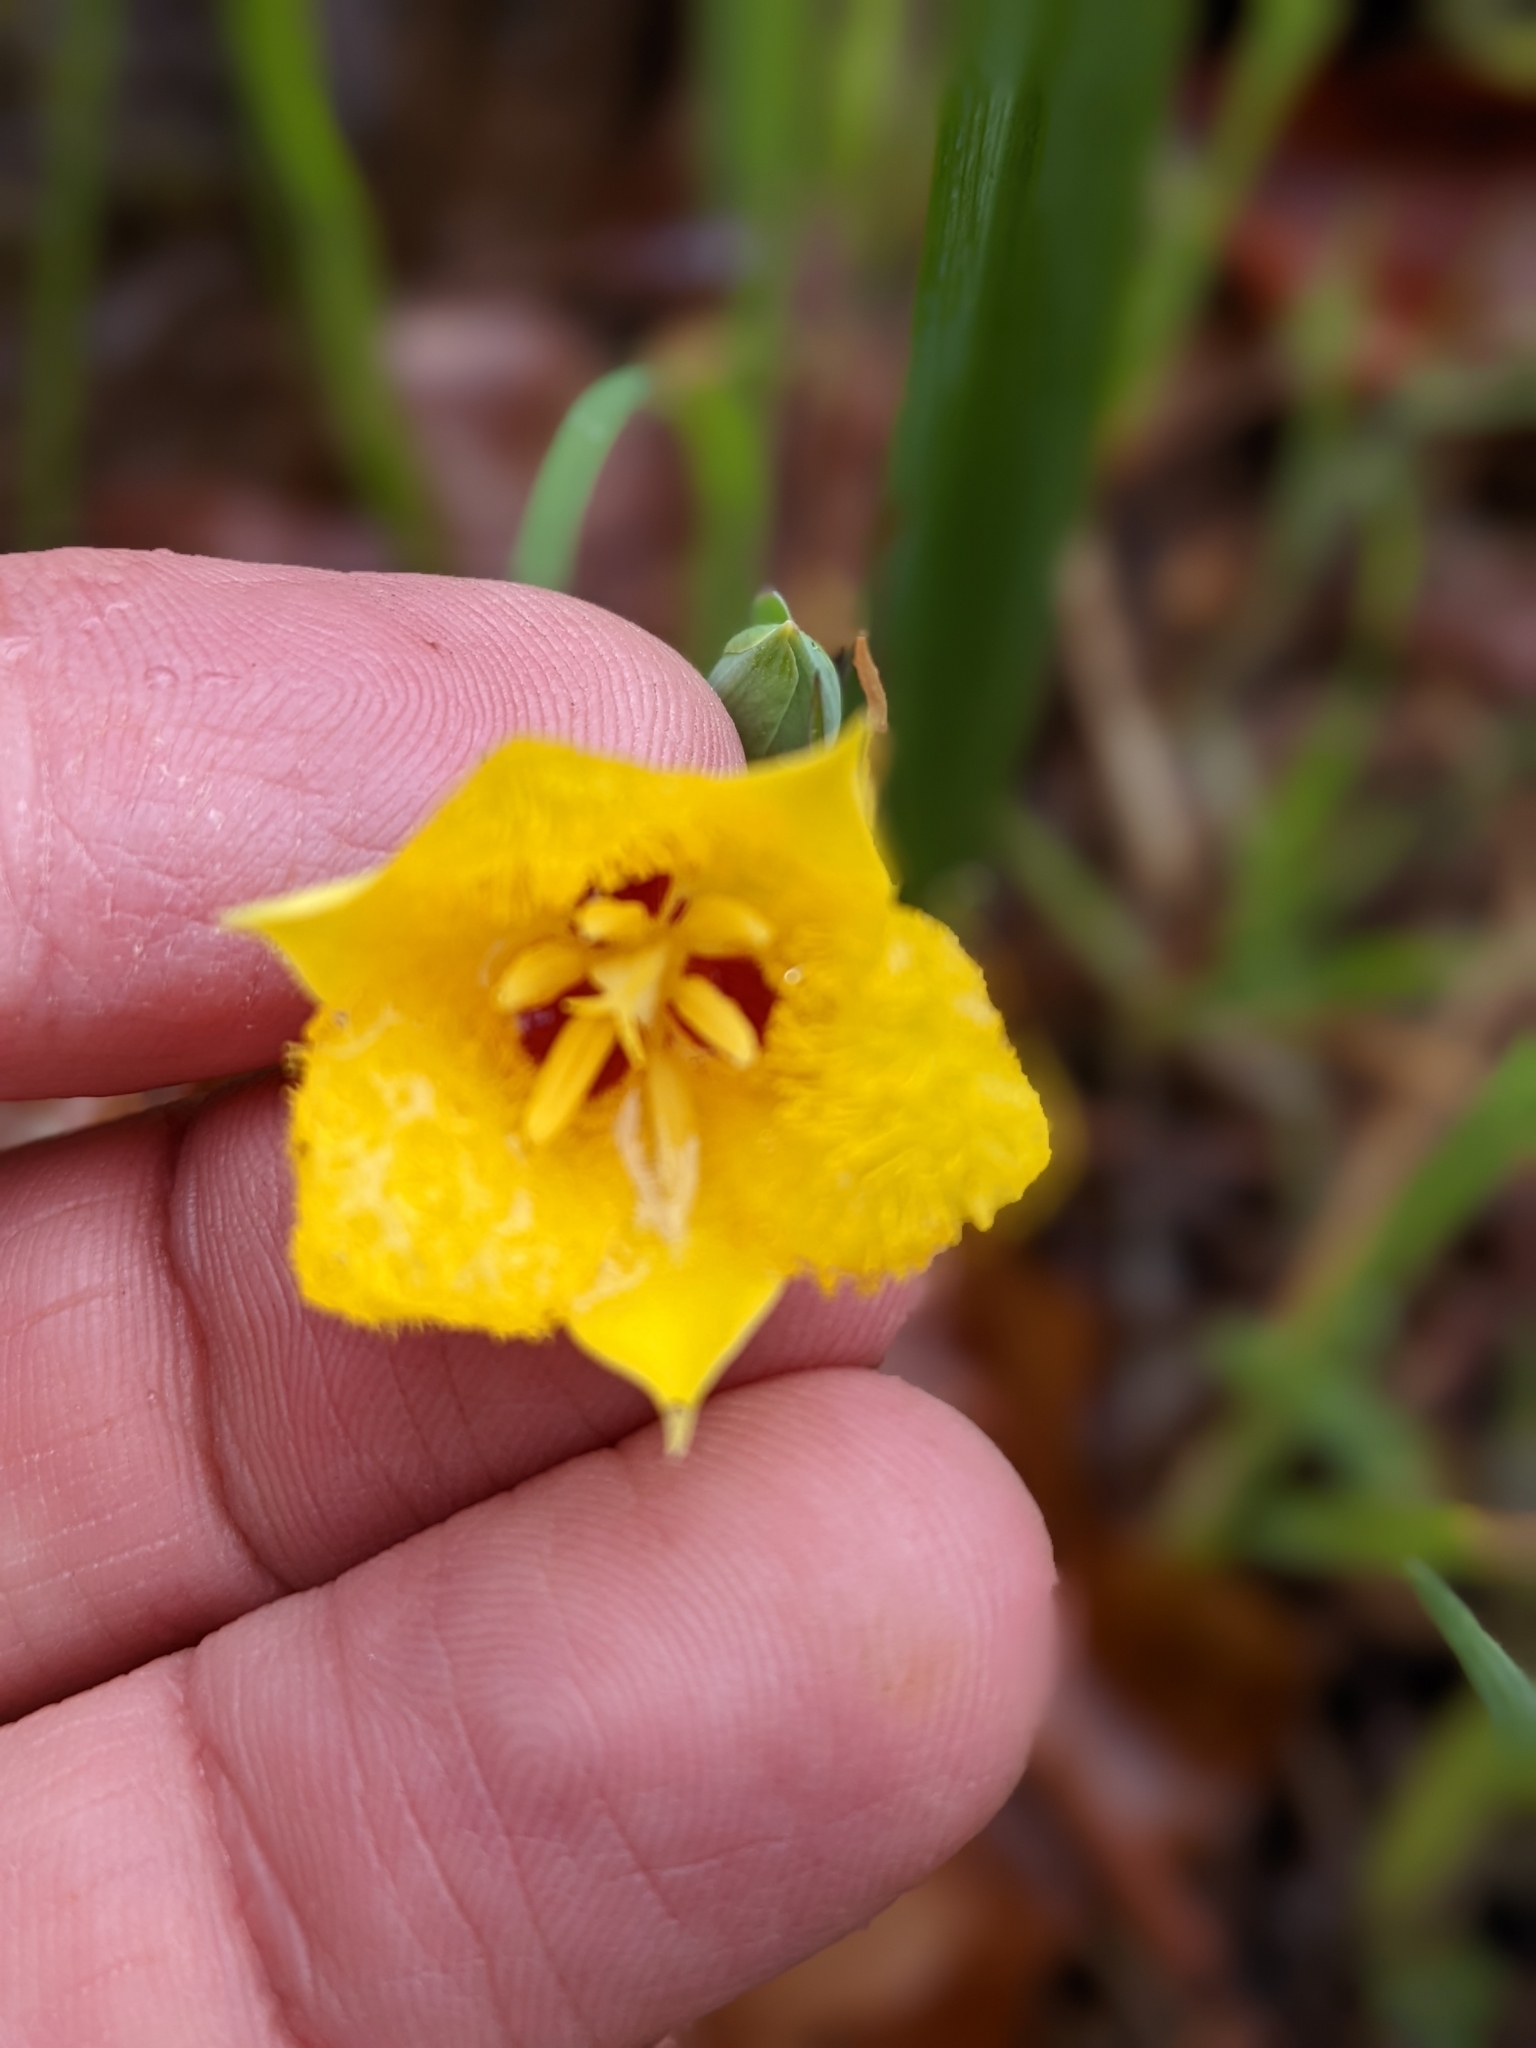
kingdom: Plantae
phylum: Tracheophyta
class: Liliopsida
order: Liliales
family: Liliaceae
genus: Calochortus
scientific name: Calochortus monophyllus
